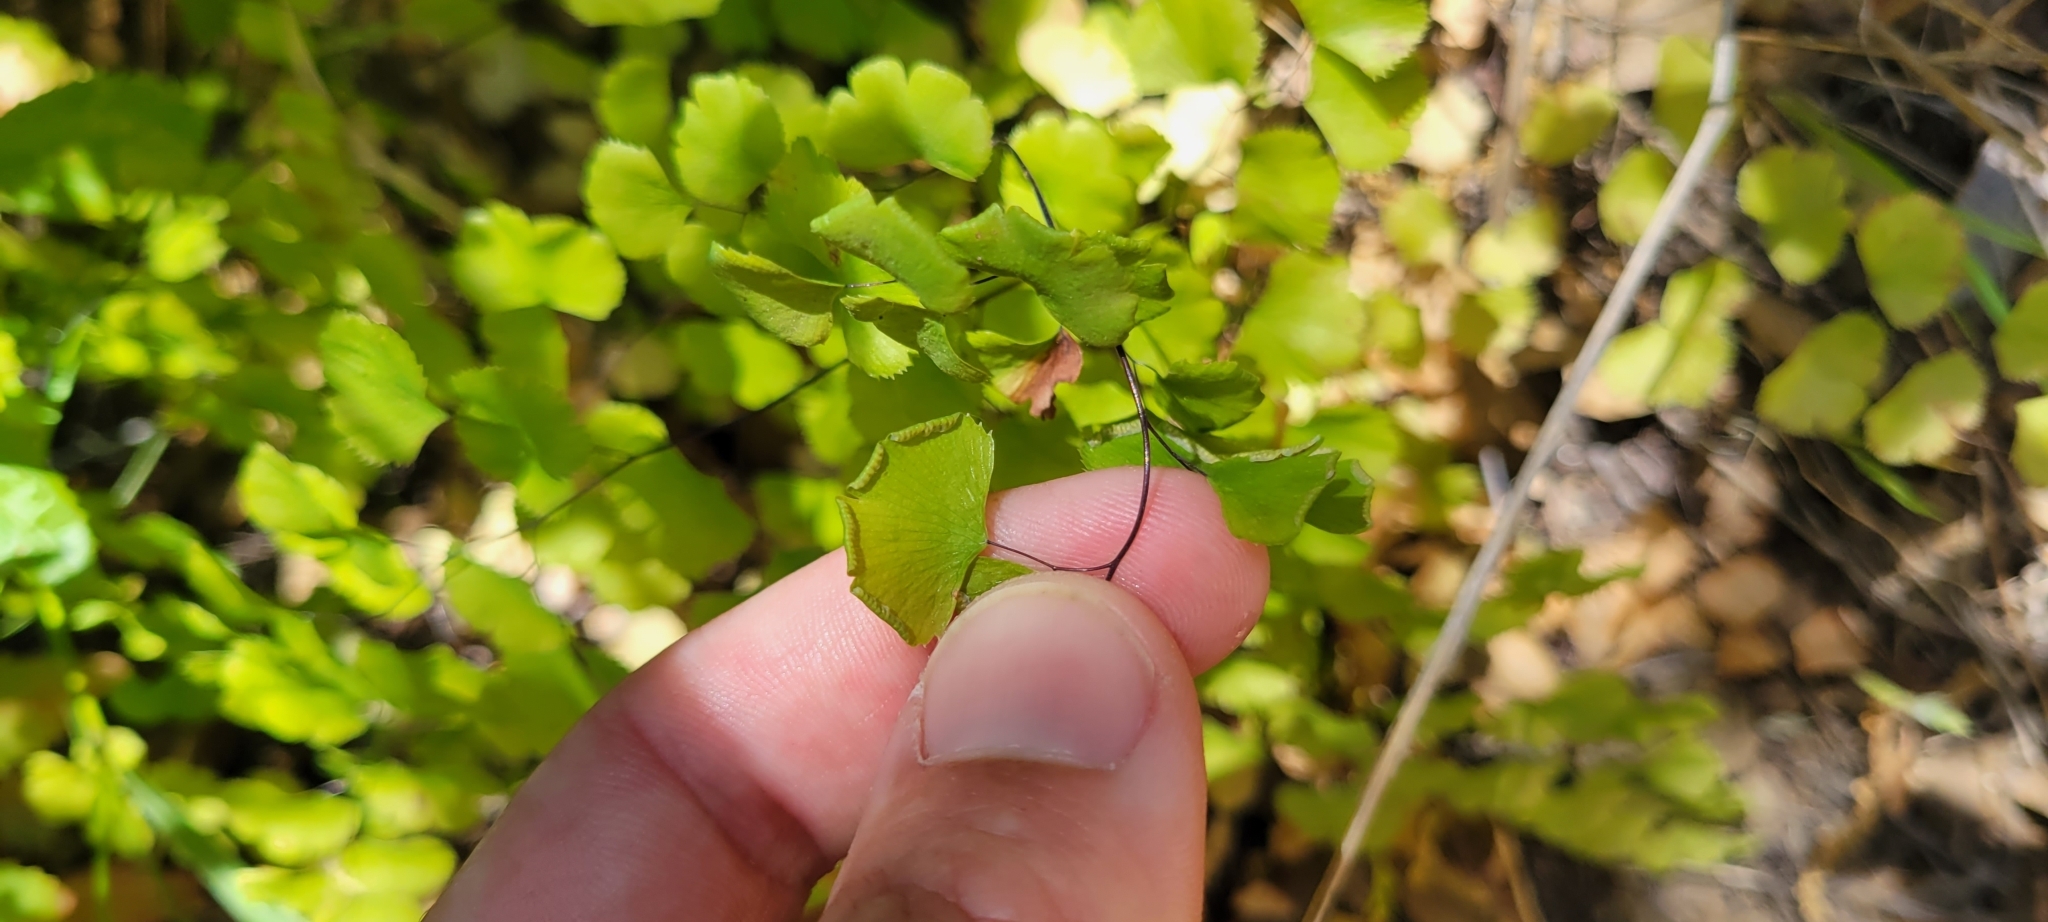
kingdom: Plantae
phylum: Tracheophyta
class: Polypodiopsida
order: Polypodiales
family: Pteridaceae
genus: Adiantum
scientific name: Adiantum jordanii
